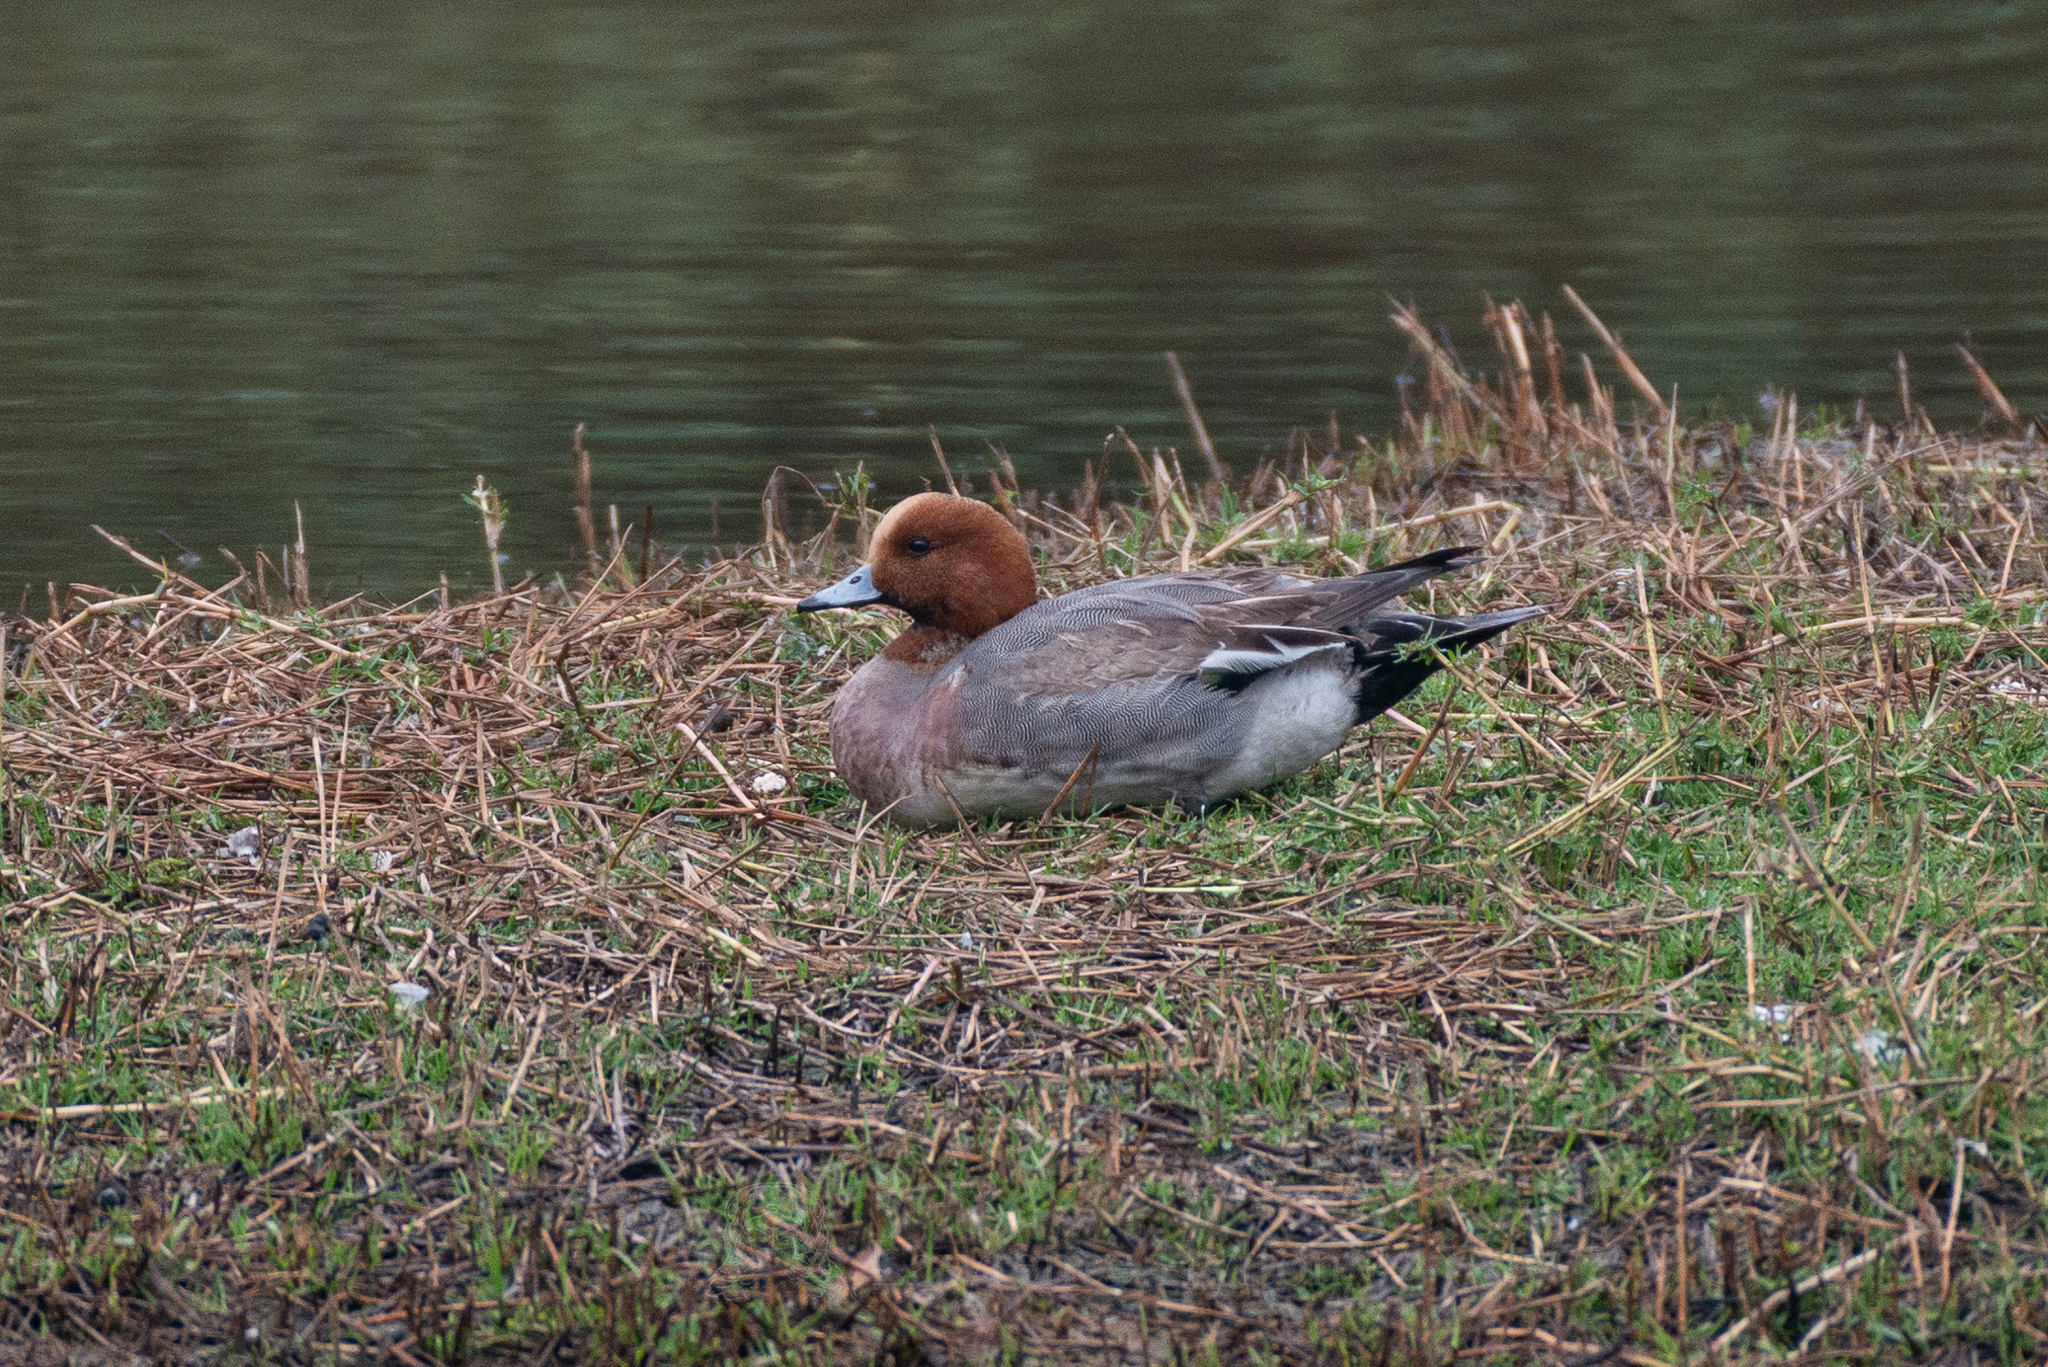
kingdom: Animalia
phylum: Chordata
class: Aves
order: Anseriformes
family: Anatidae
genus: Mareca
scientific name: Mareca penelope
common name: Eurasian wigeon
